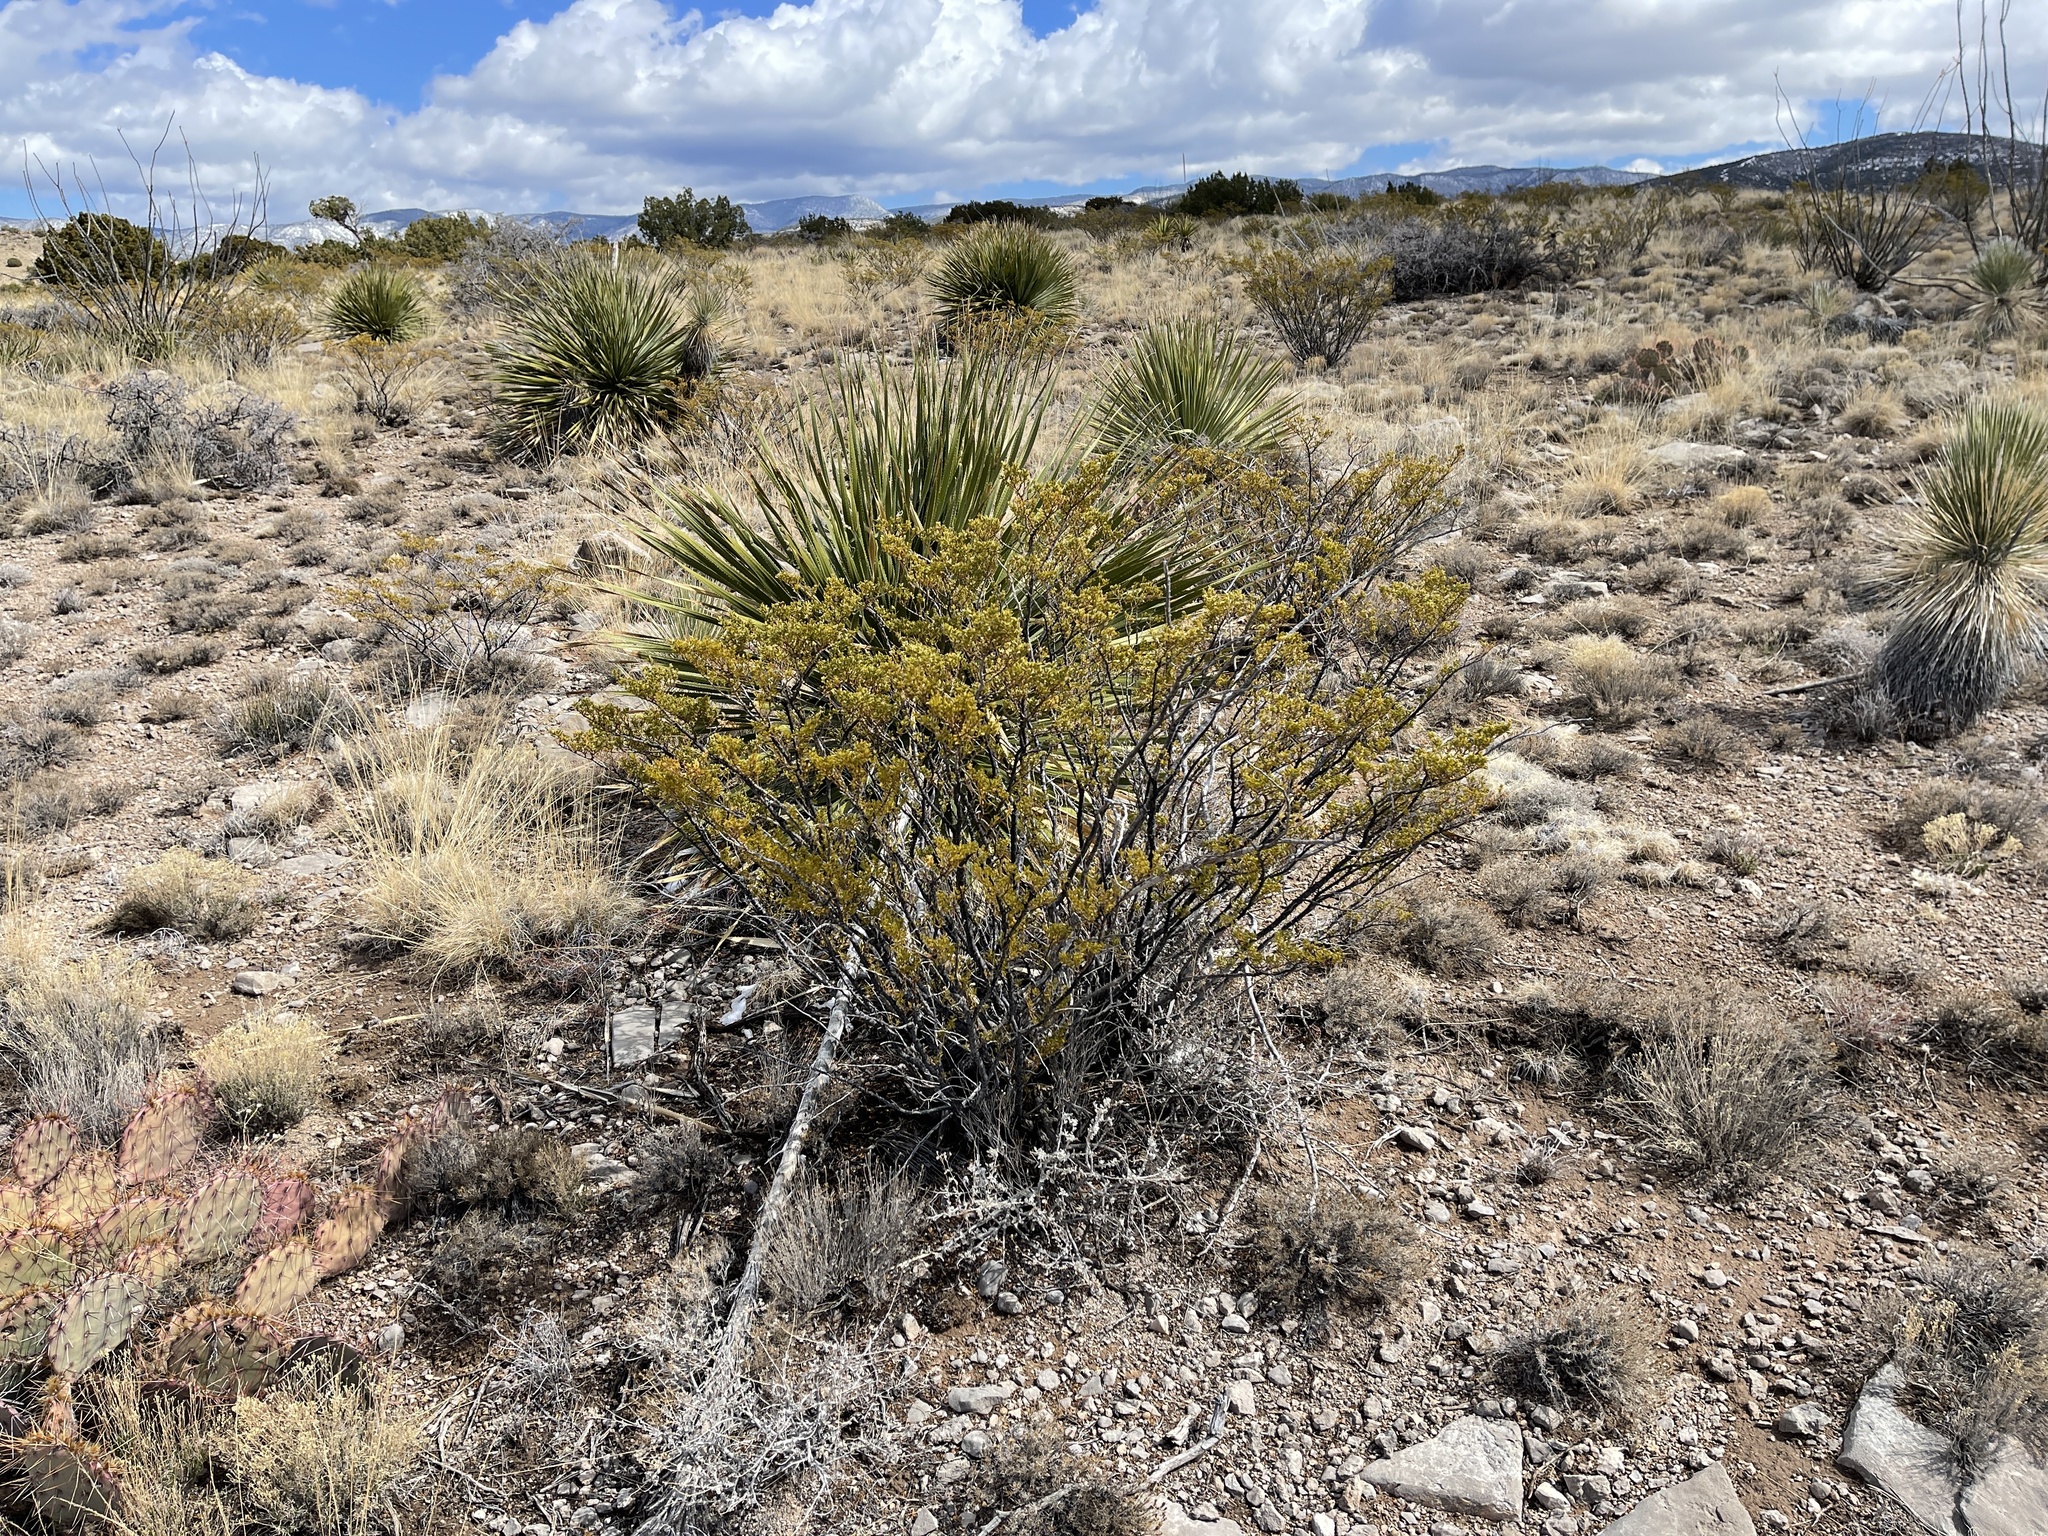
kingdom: Plantae
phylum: Tracheophyta
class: Magnoliopsida
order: Zygophyllales
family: Zygophyllaceae
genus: Larrea
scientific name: Larrea tridentata
